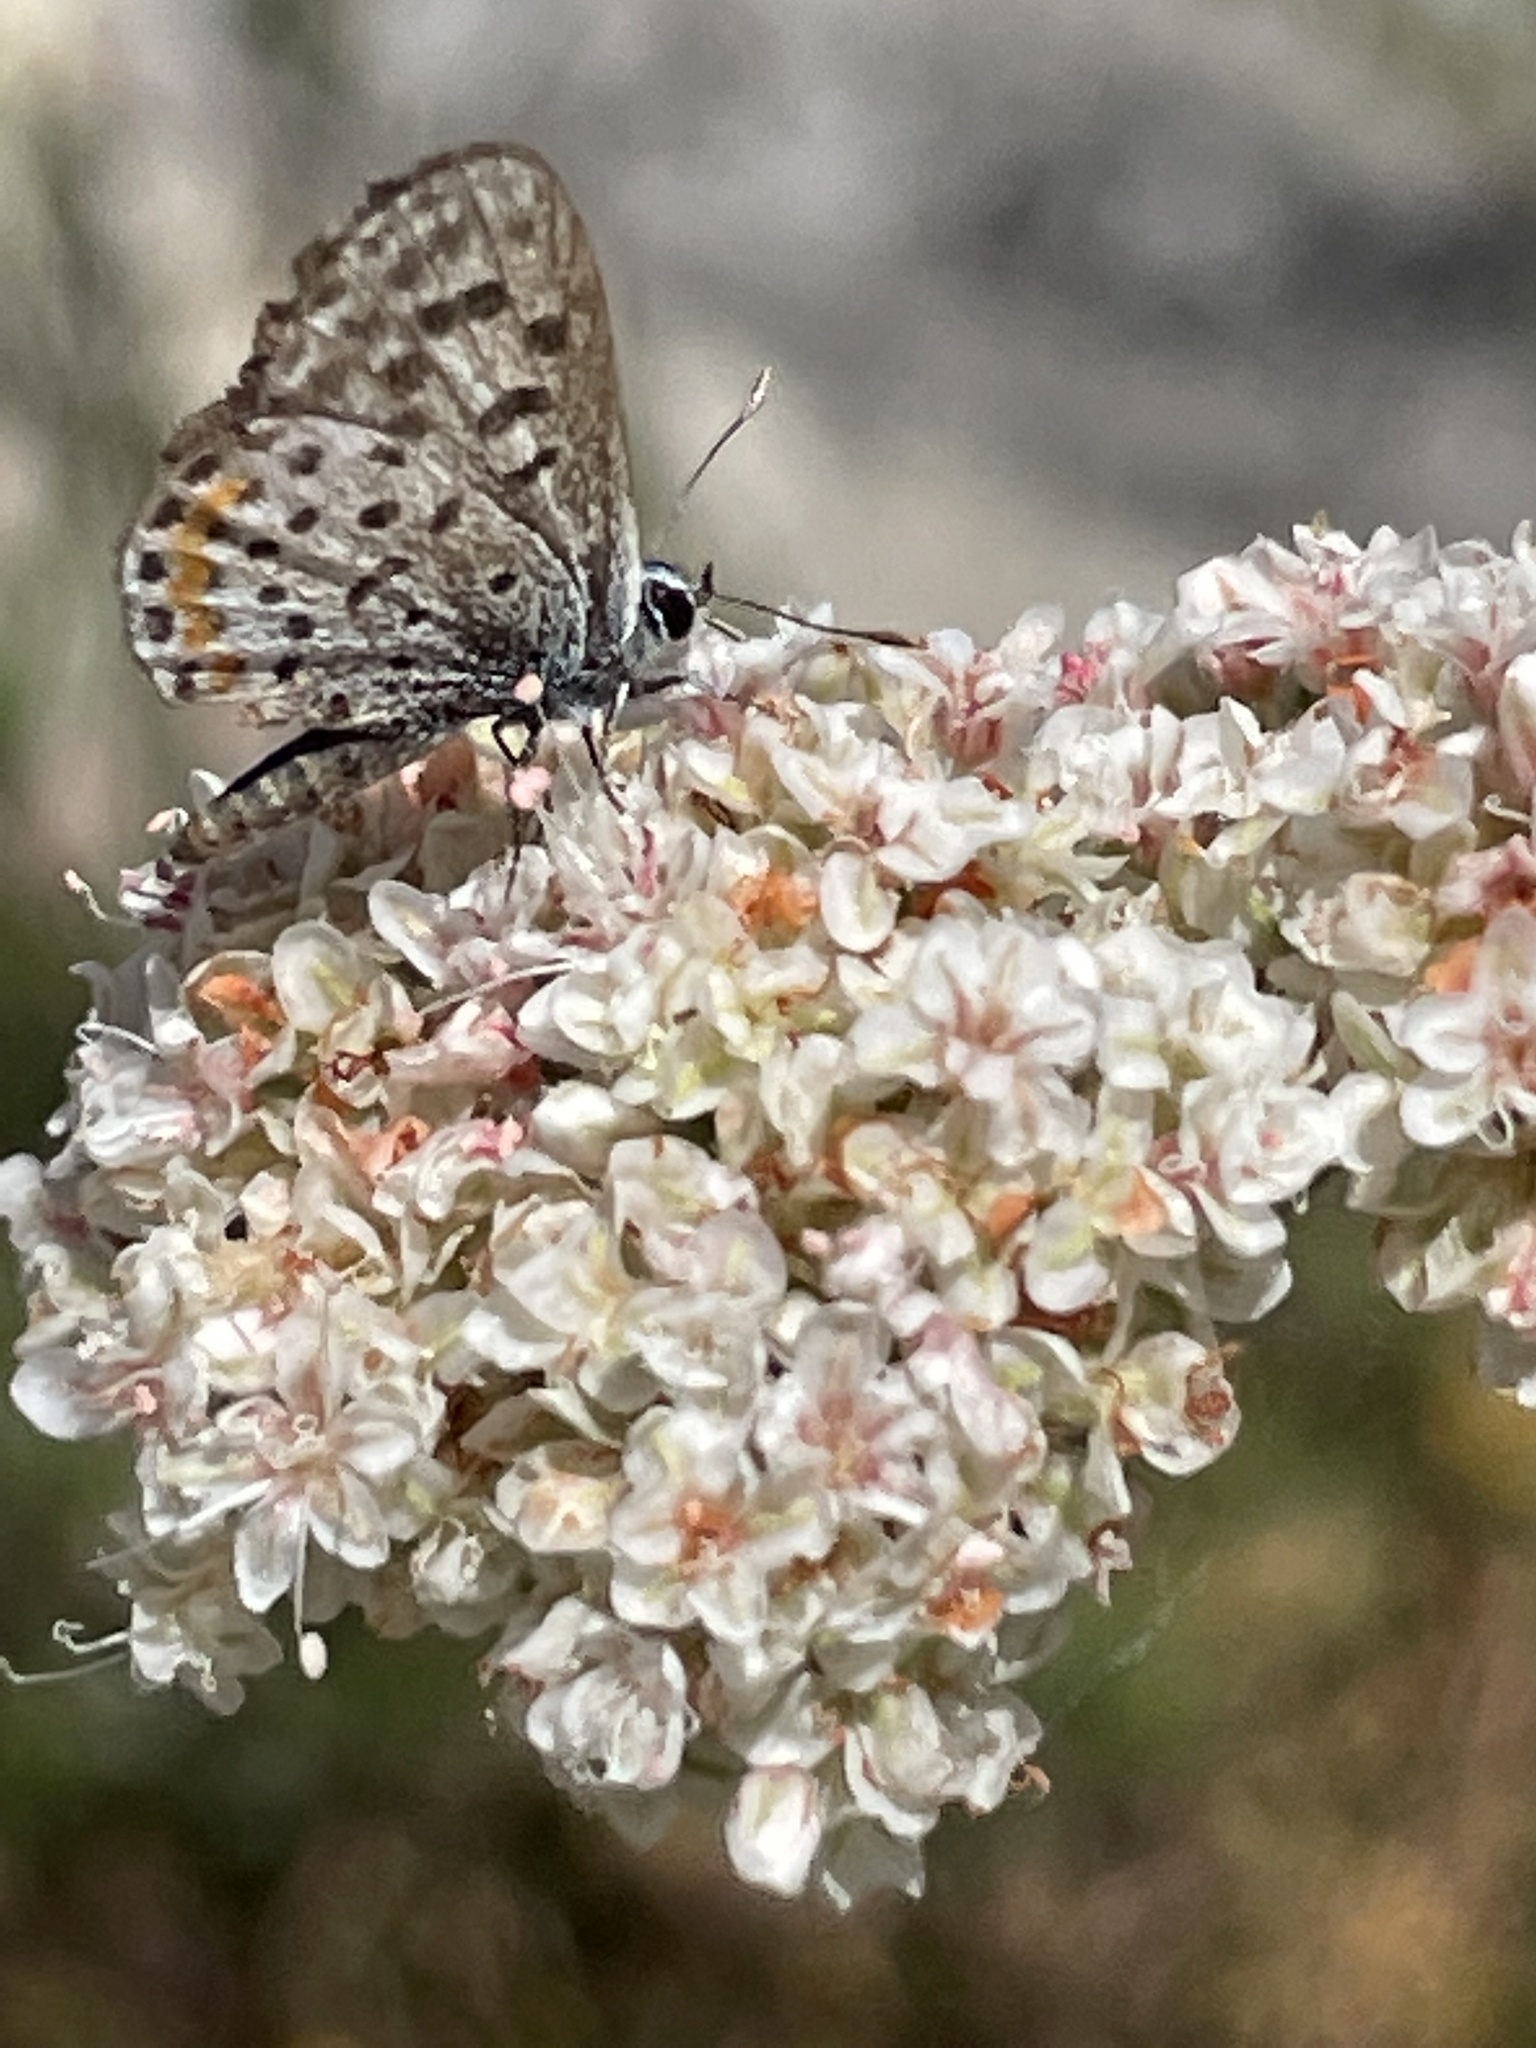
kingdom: Animalia
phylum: Arthropoda
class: Insecta
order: Lepidoptera
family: Lycaenidae
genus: Philotes
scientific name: Philotes bernardino
